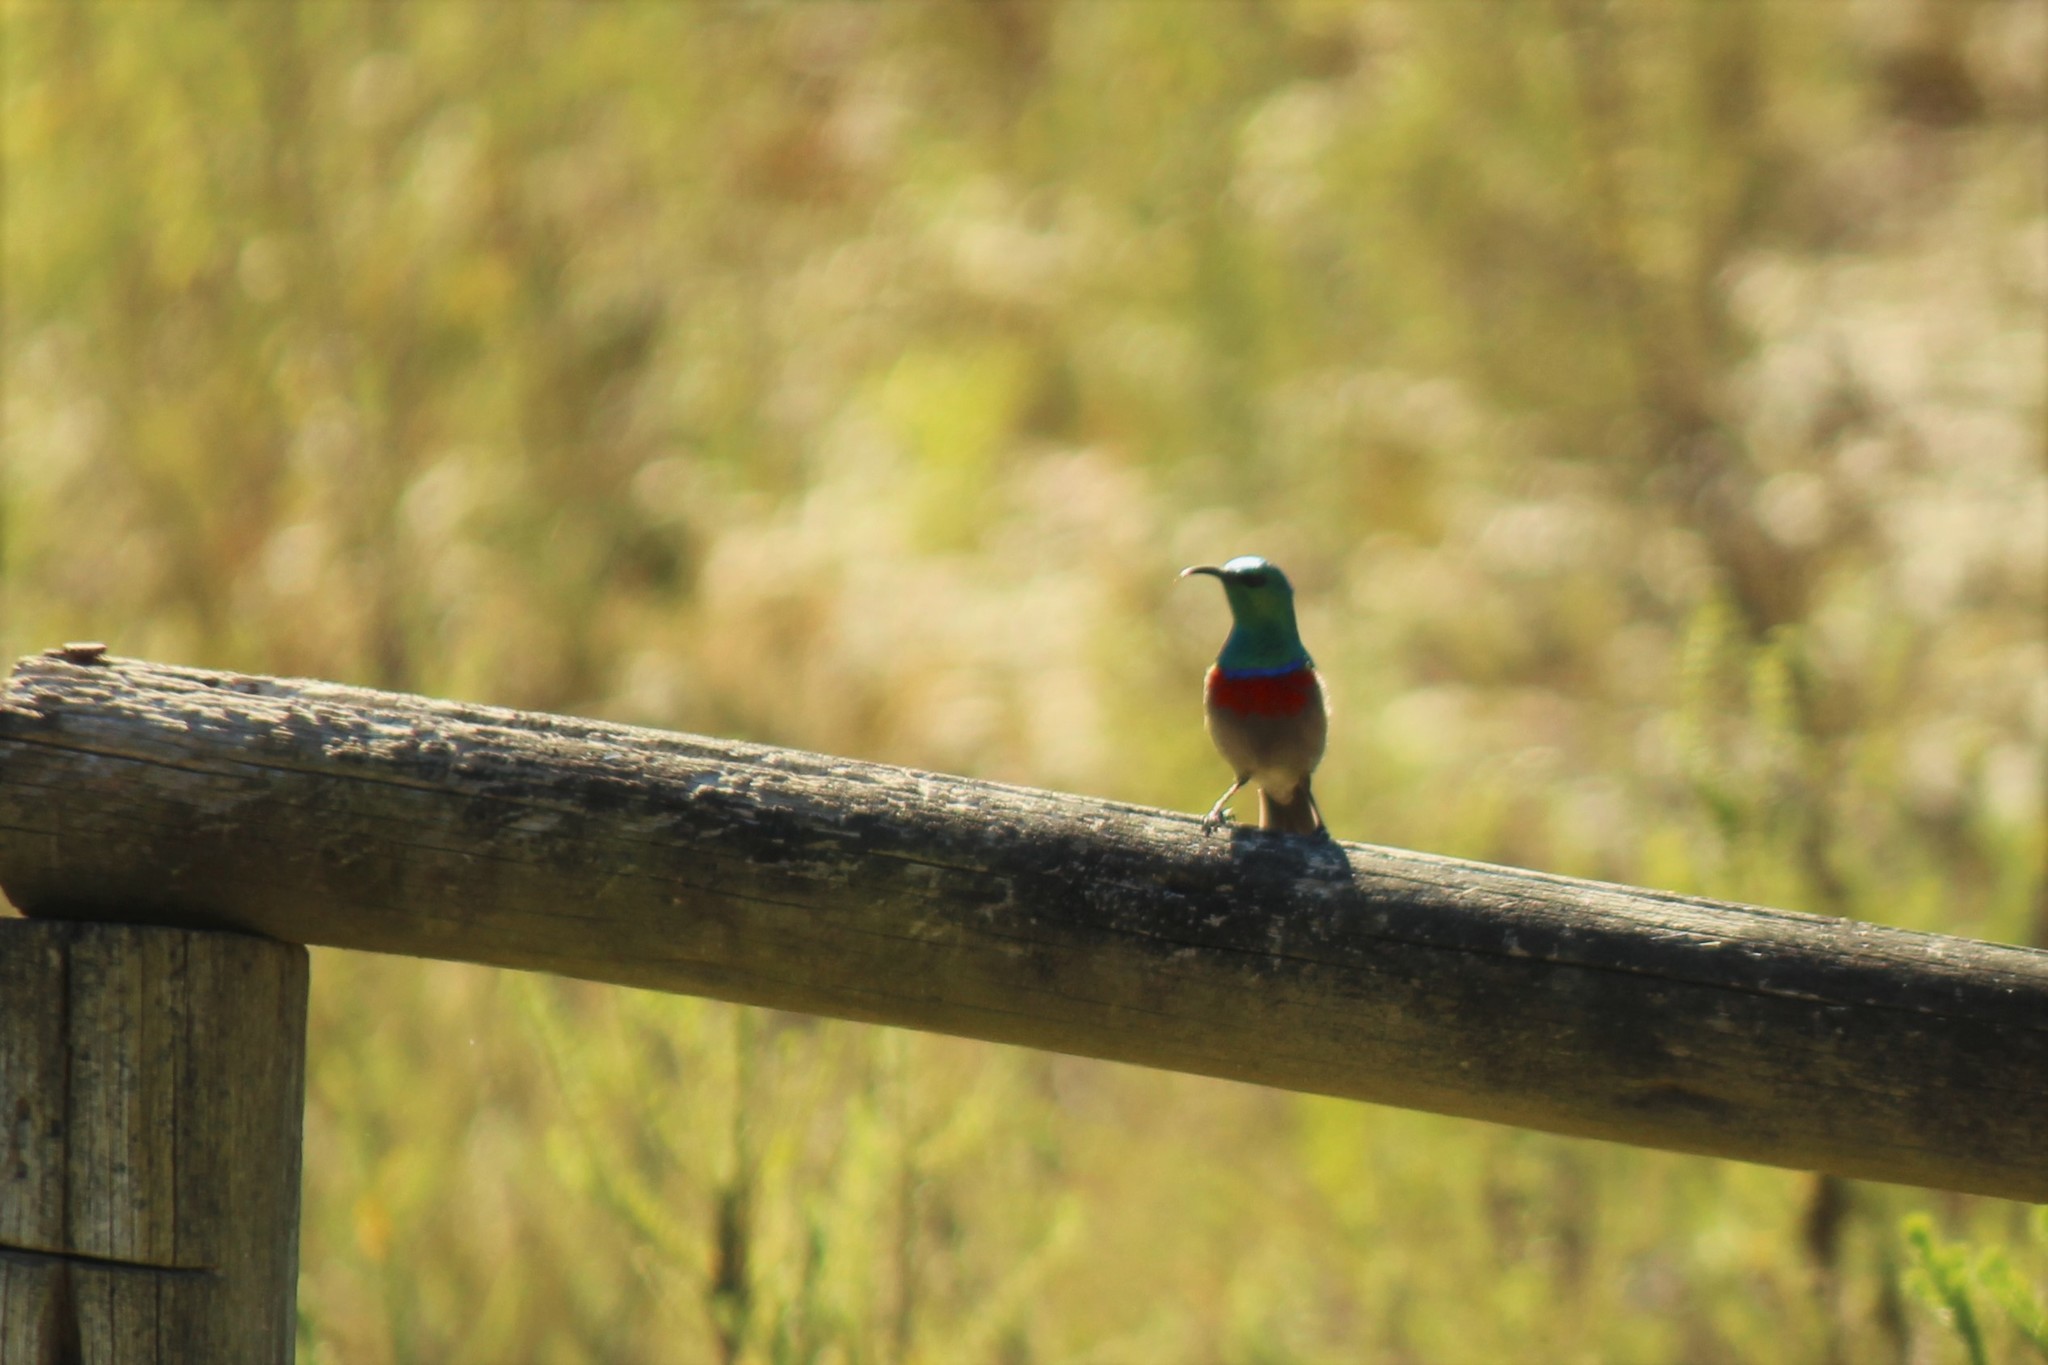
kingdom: Animalia
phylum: Chordata
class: Aves
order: Passeriformes
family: Nectariniidae
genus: Cinnyris
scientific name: Cinnyris chalybeus
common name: Southern double-collared sunbird
